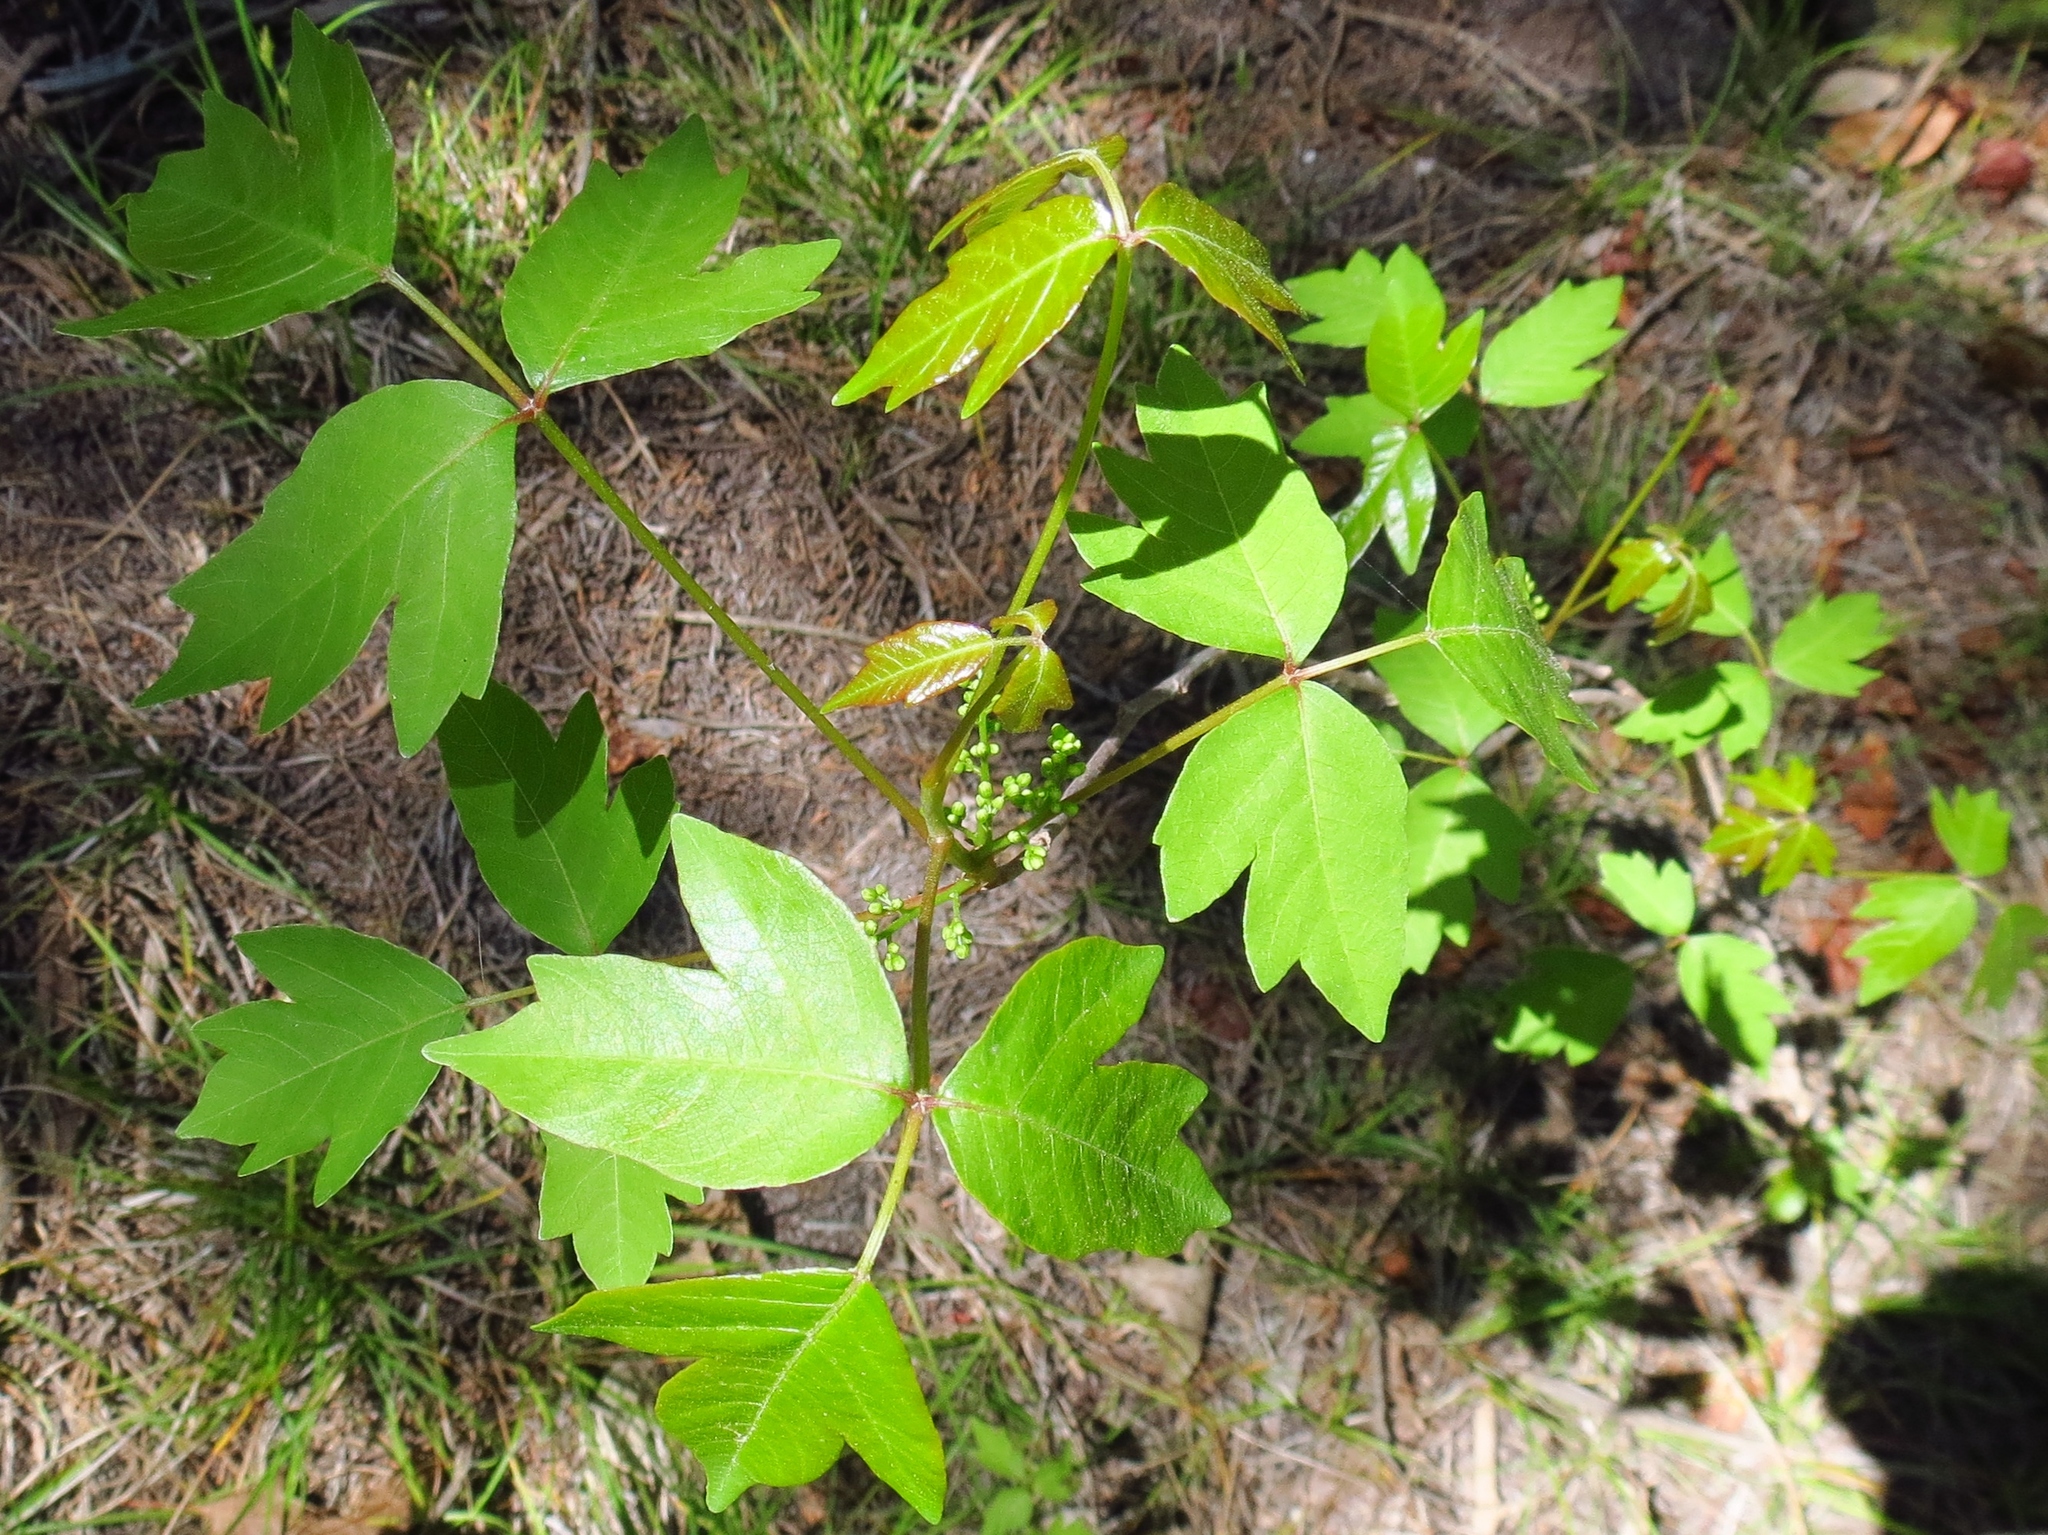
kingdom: Plantae
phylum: Tracheophyta
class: Magnoliopsida
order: Sapindales
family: Anacardiaceae
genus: Toxicodendron
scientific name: Toxicodendron radicans
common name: Poison ivy
